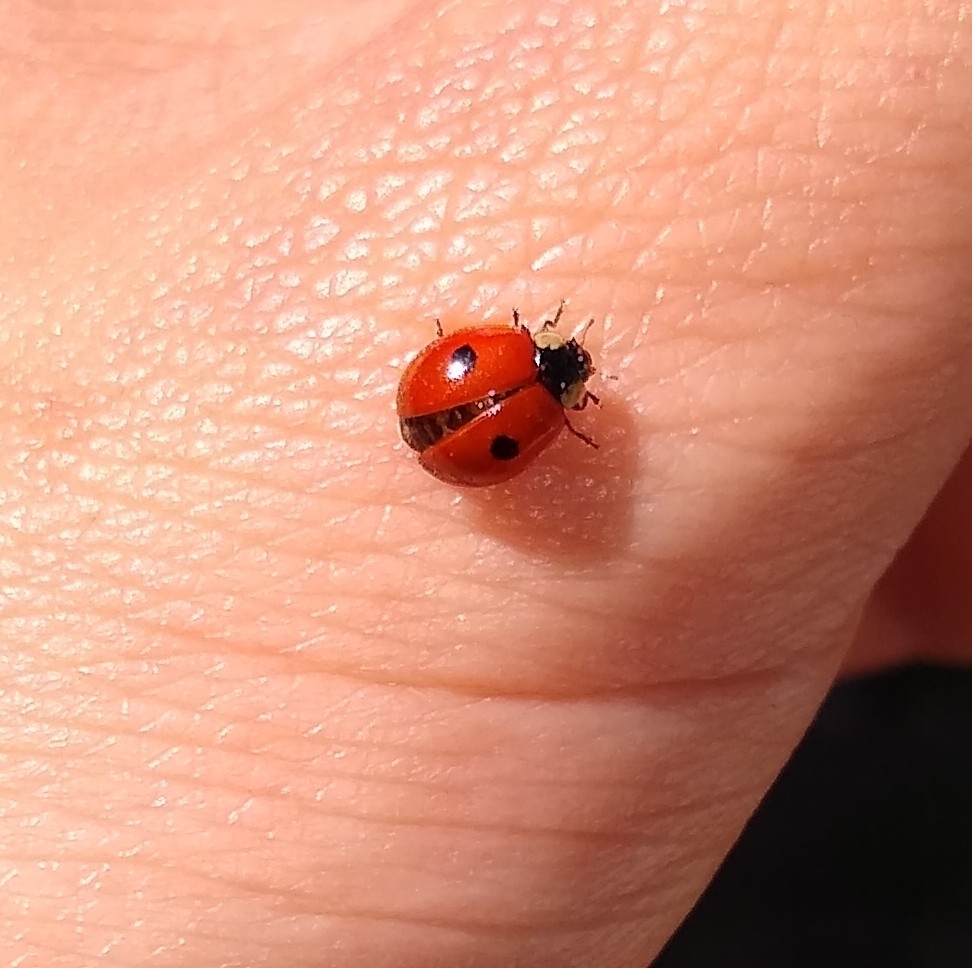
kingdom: Animalia
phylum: Arthropoda
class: Insecta
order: Coleoptera
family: Coccinellidae
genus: Adalia
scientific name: Adalia bipunctata
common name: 2-spot ladybird
